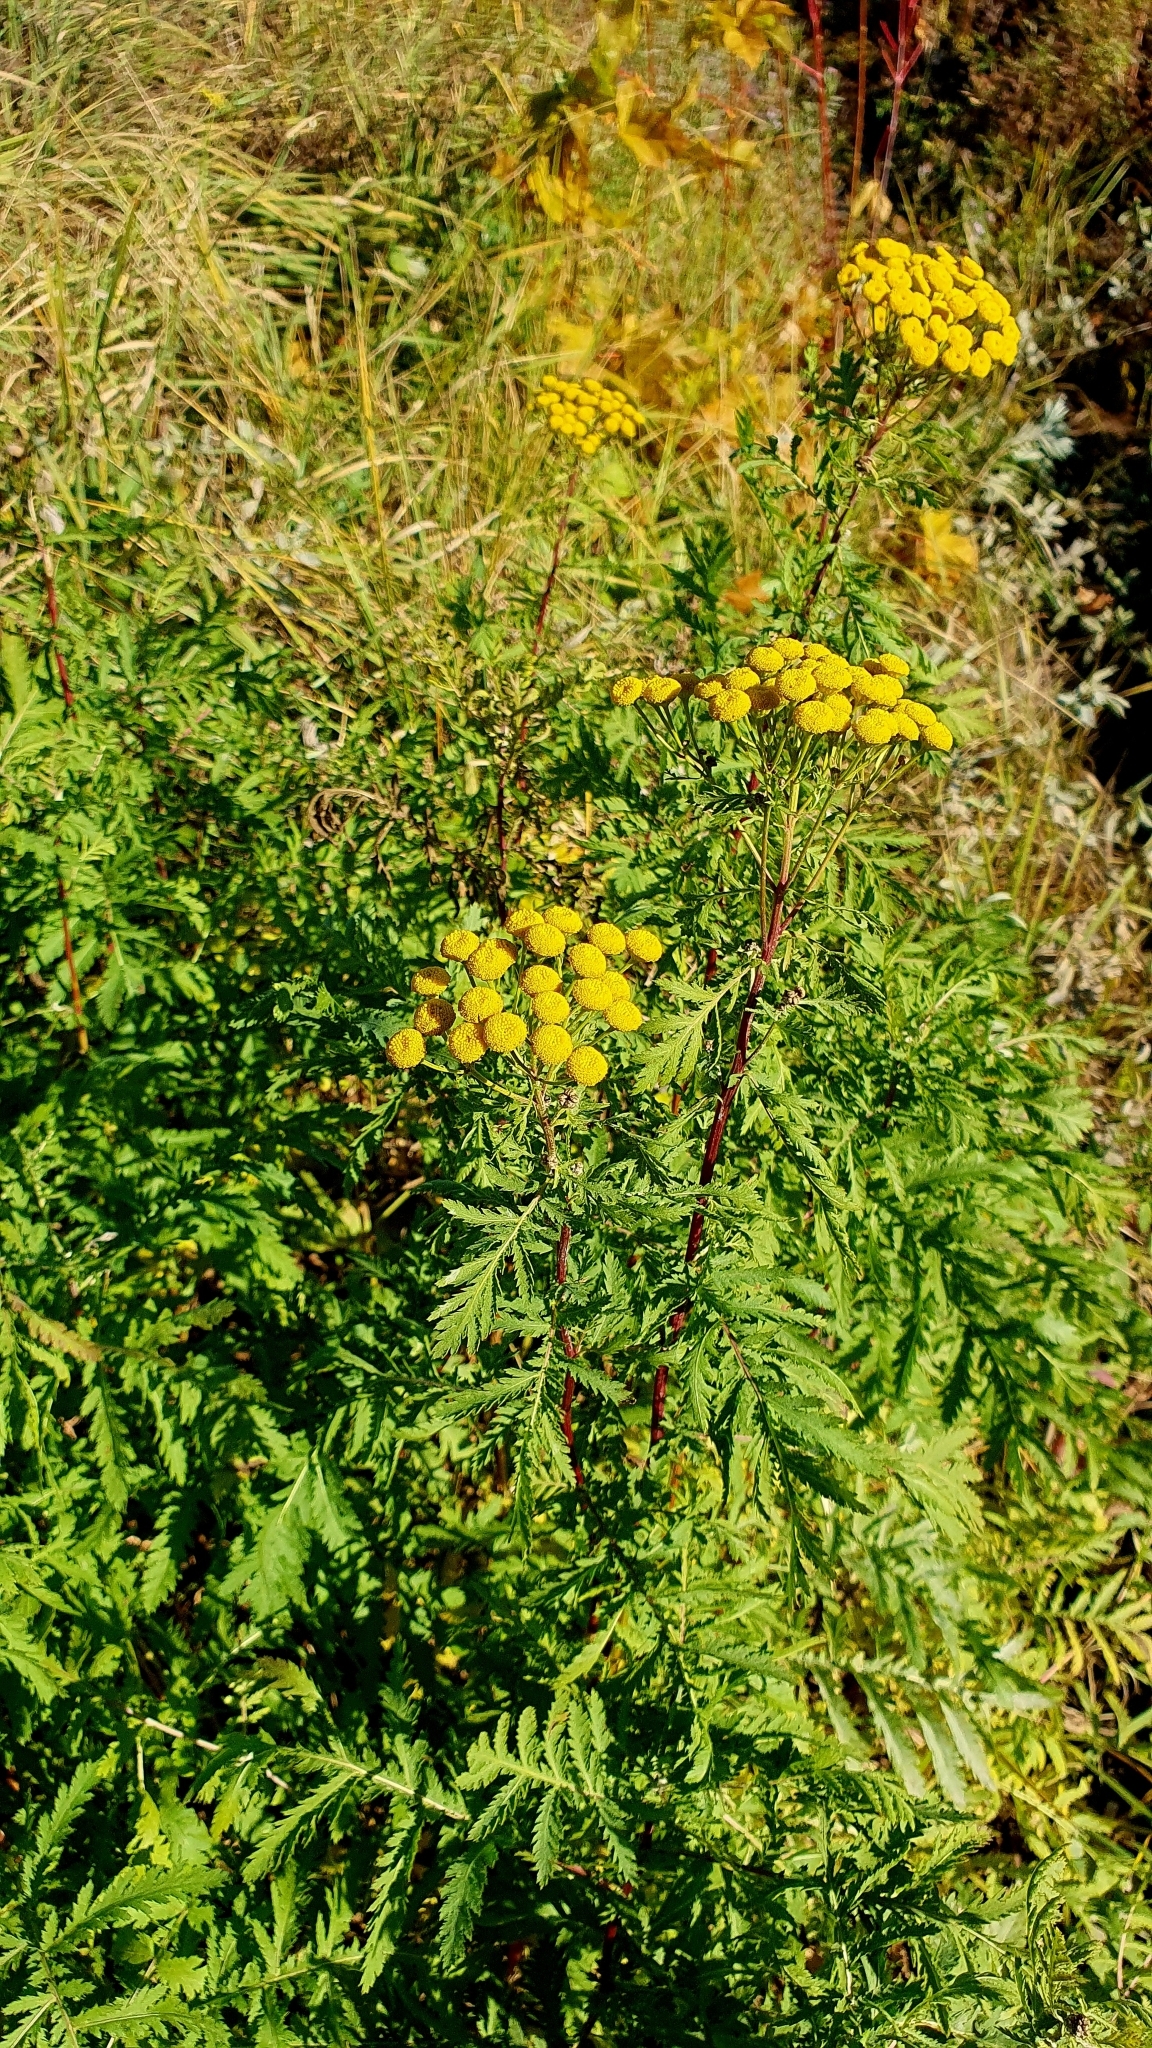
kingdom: Plantae
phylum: Tracheophyta
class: Magnoliopsida
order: Asterales
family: Asteraceae
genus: Tanacetum
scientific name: Tanacetum vulgare
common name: Common tansy
